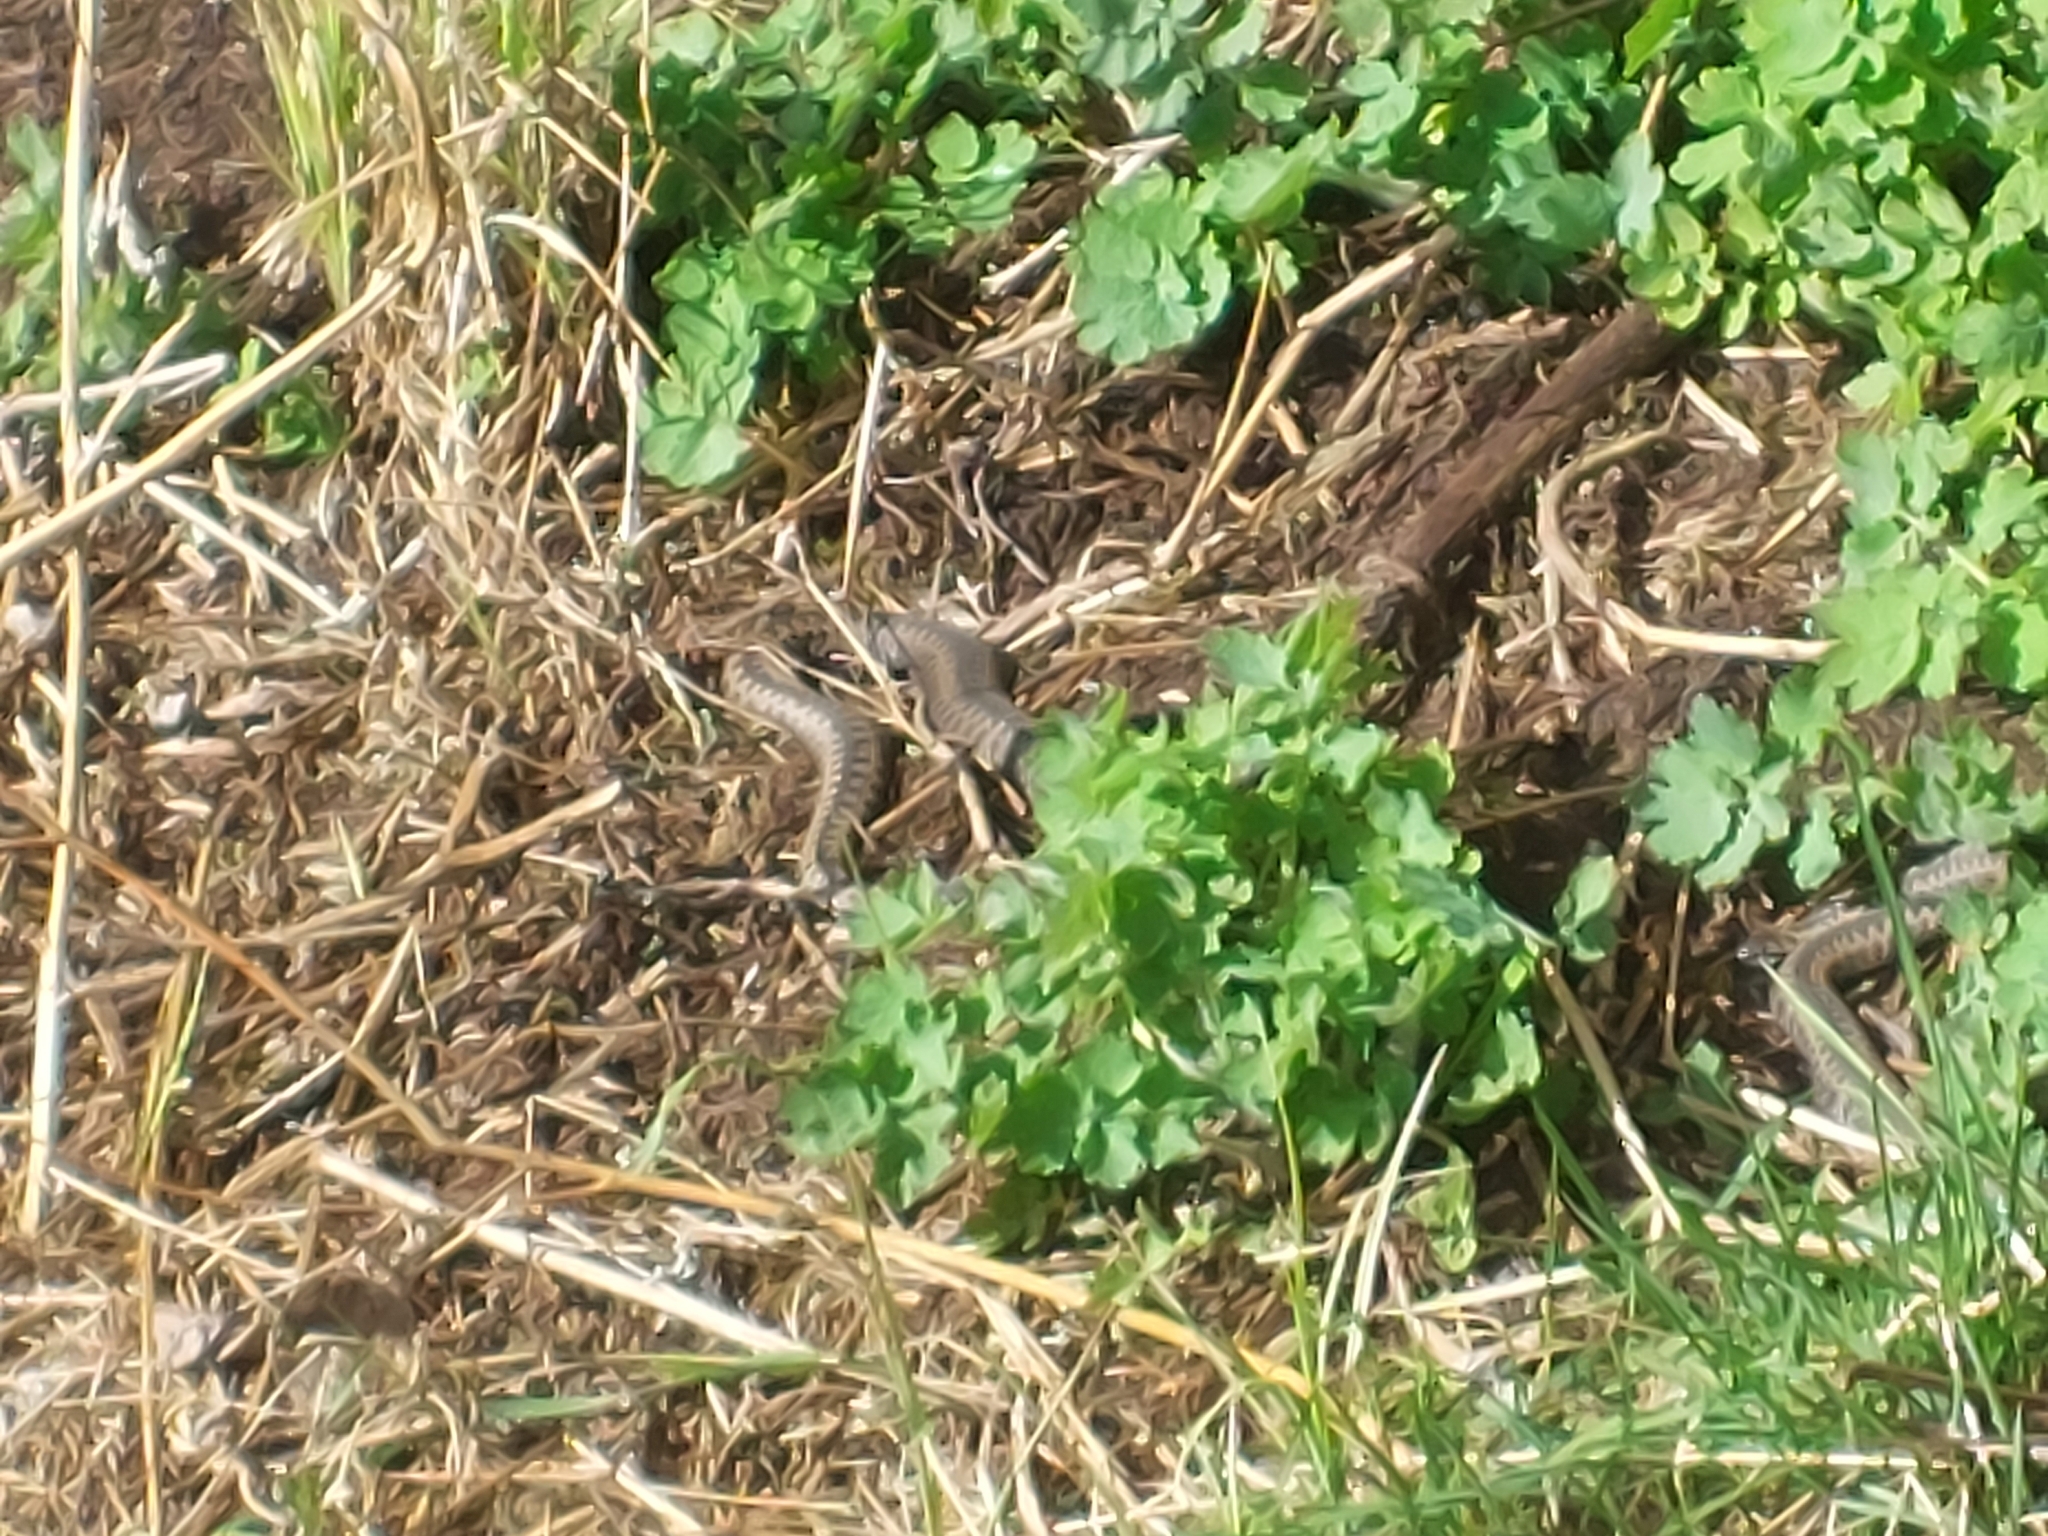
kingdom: Animalia
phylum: Chordata
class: Squamata
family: Viperidae
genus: Vipera
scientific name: Vipera berus
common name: Adder
